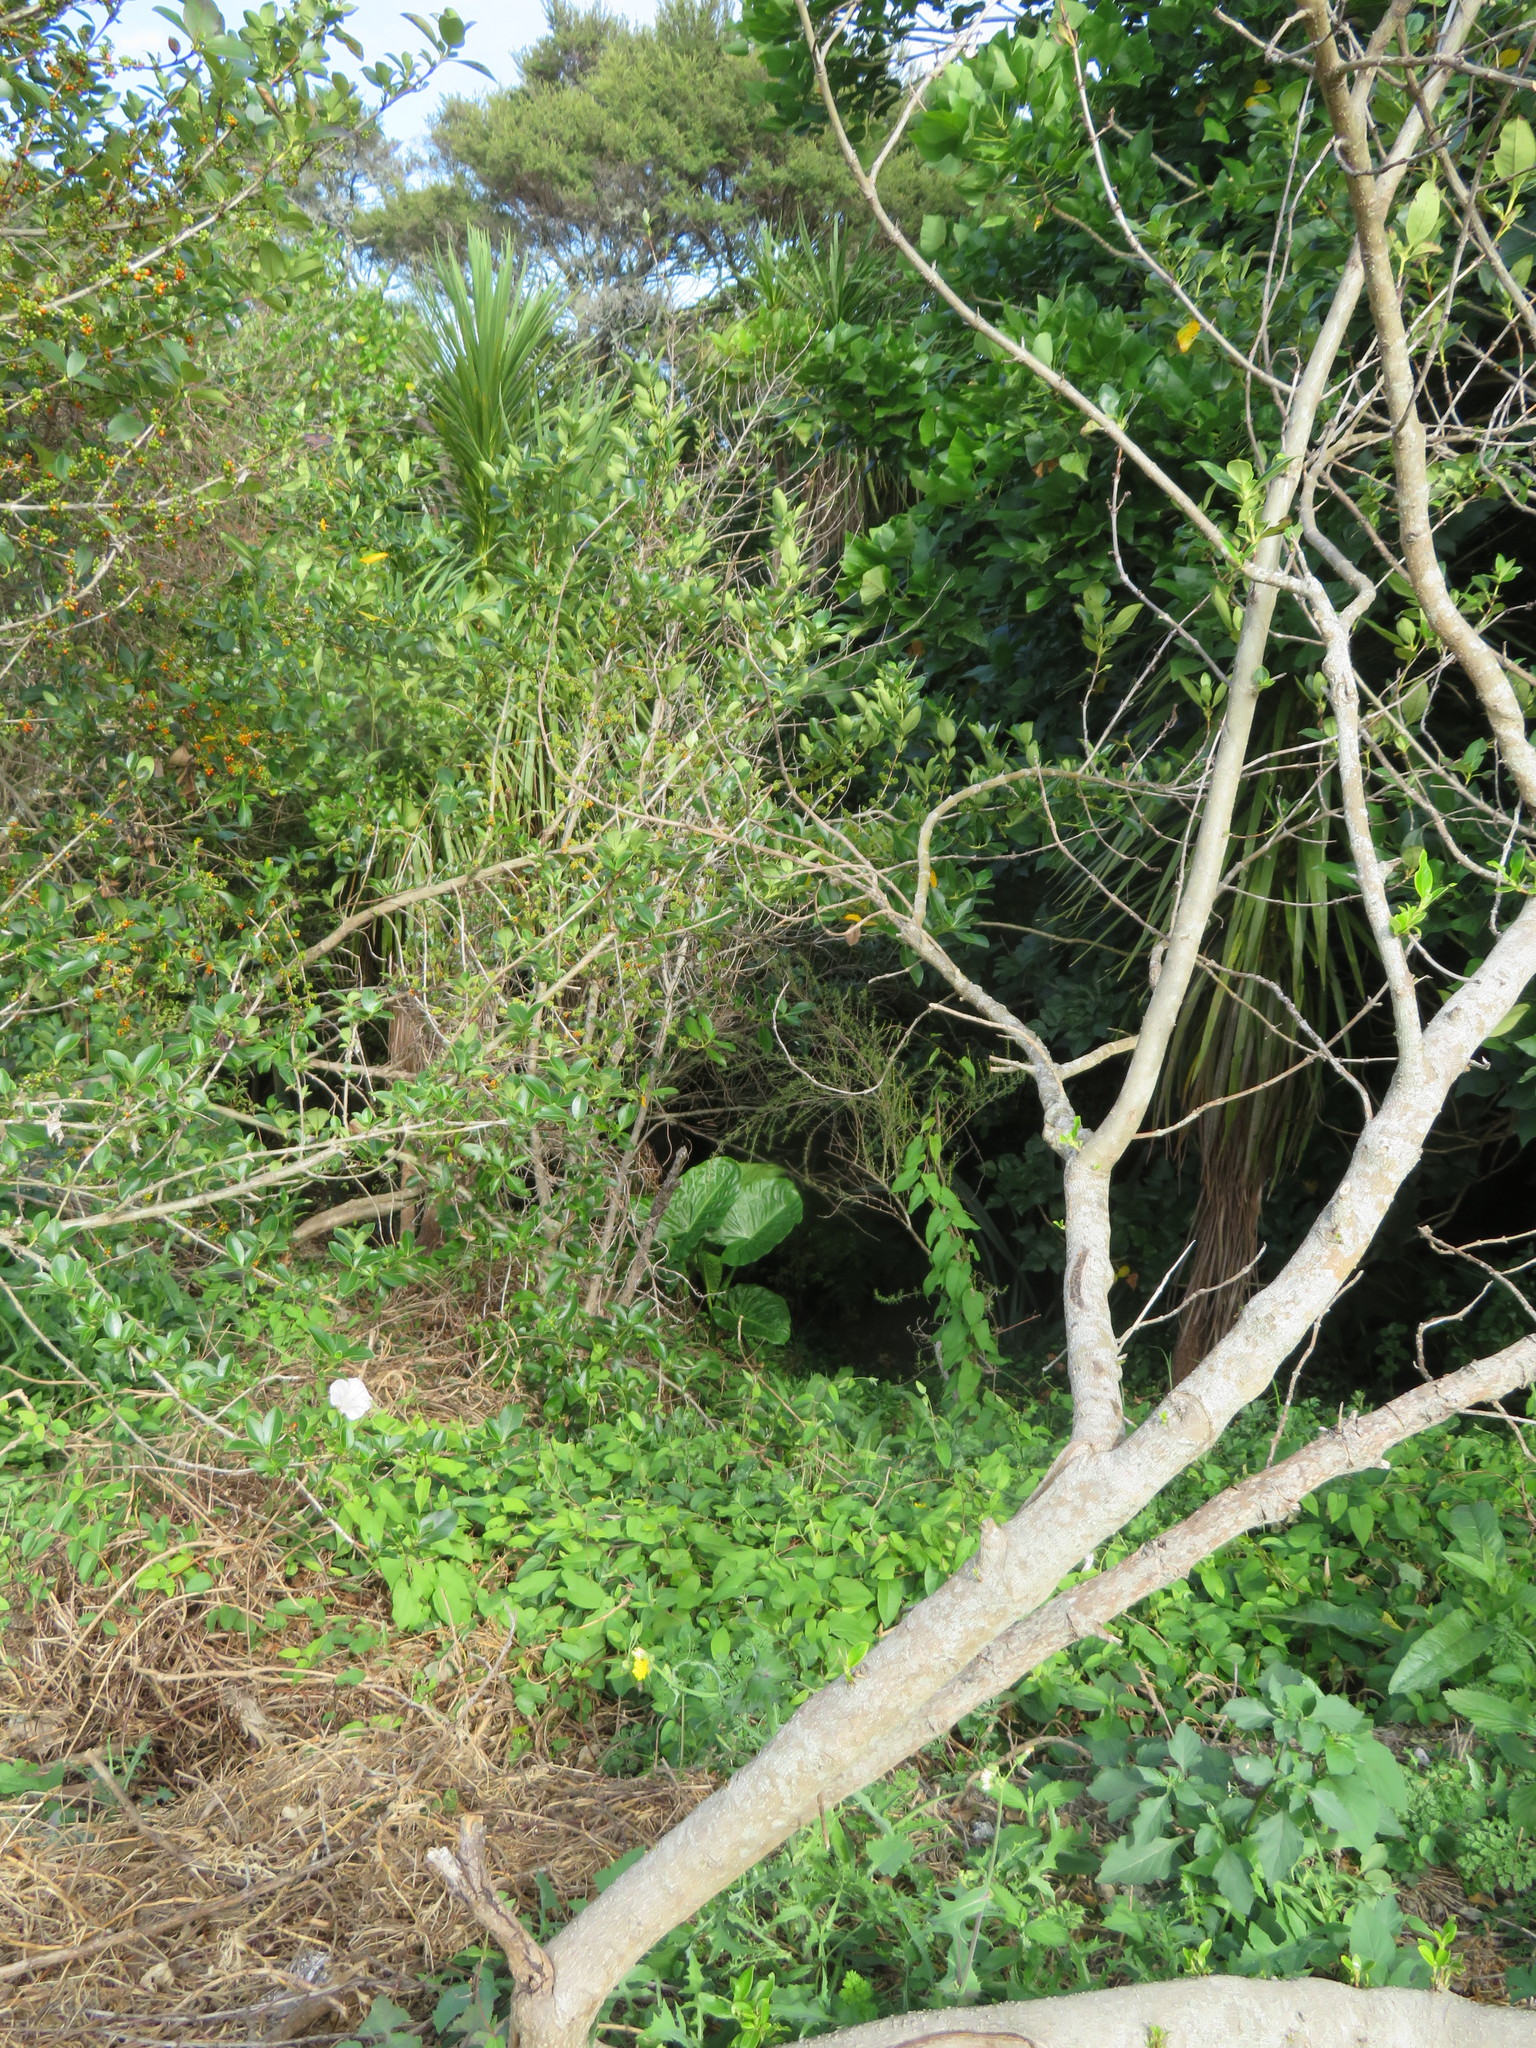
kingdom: Plantae
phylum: Tracheophyta
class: Liliopsida
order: Alismatales
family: Araceae
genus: Alocasia
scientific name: Alocasia brisbanensis
